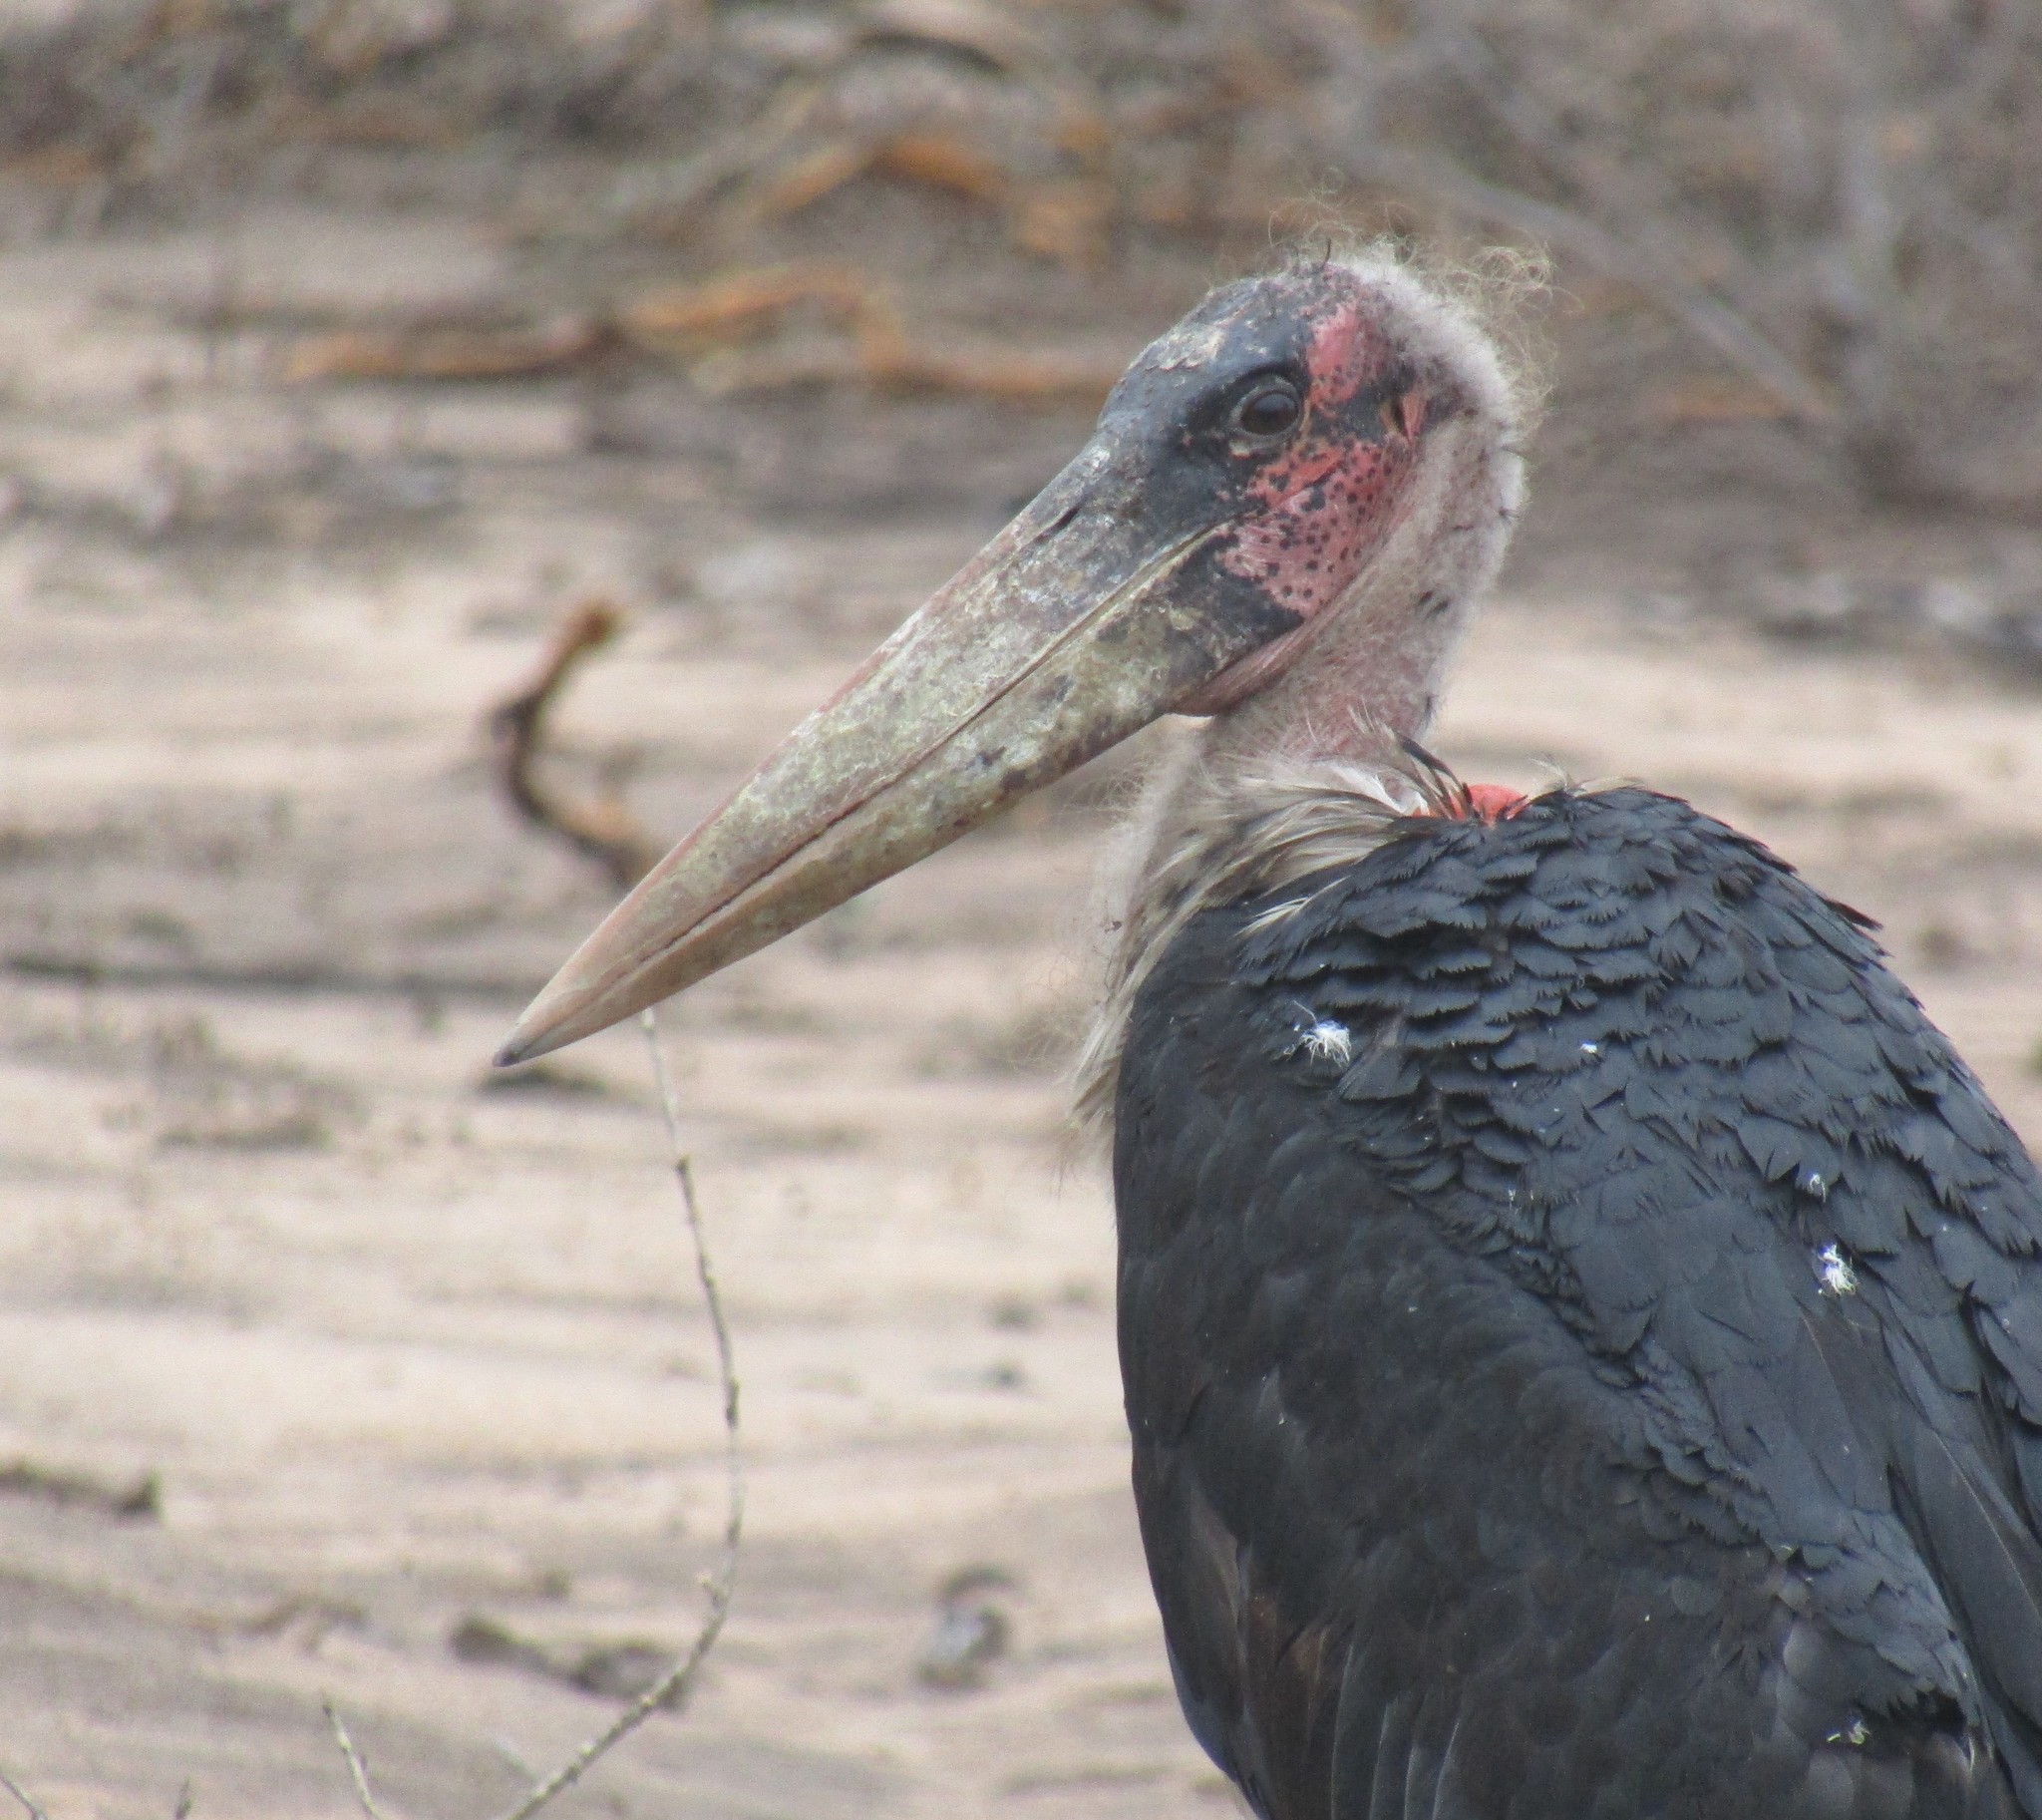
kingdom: Animalia
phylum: Chordata
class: Aves
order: Ciconiiformes
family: Ciconiidae
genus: Leptoptilos
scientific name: Leptoptilos crumenifer
